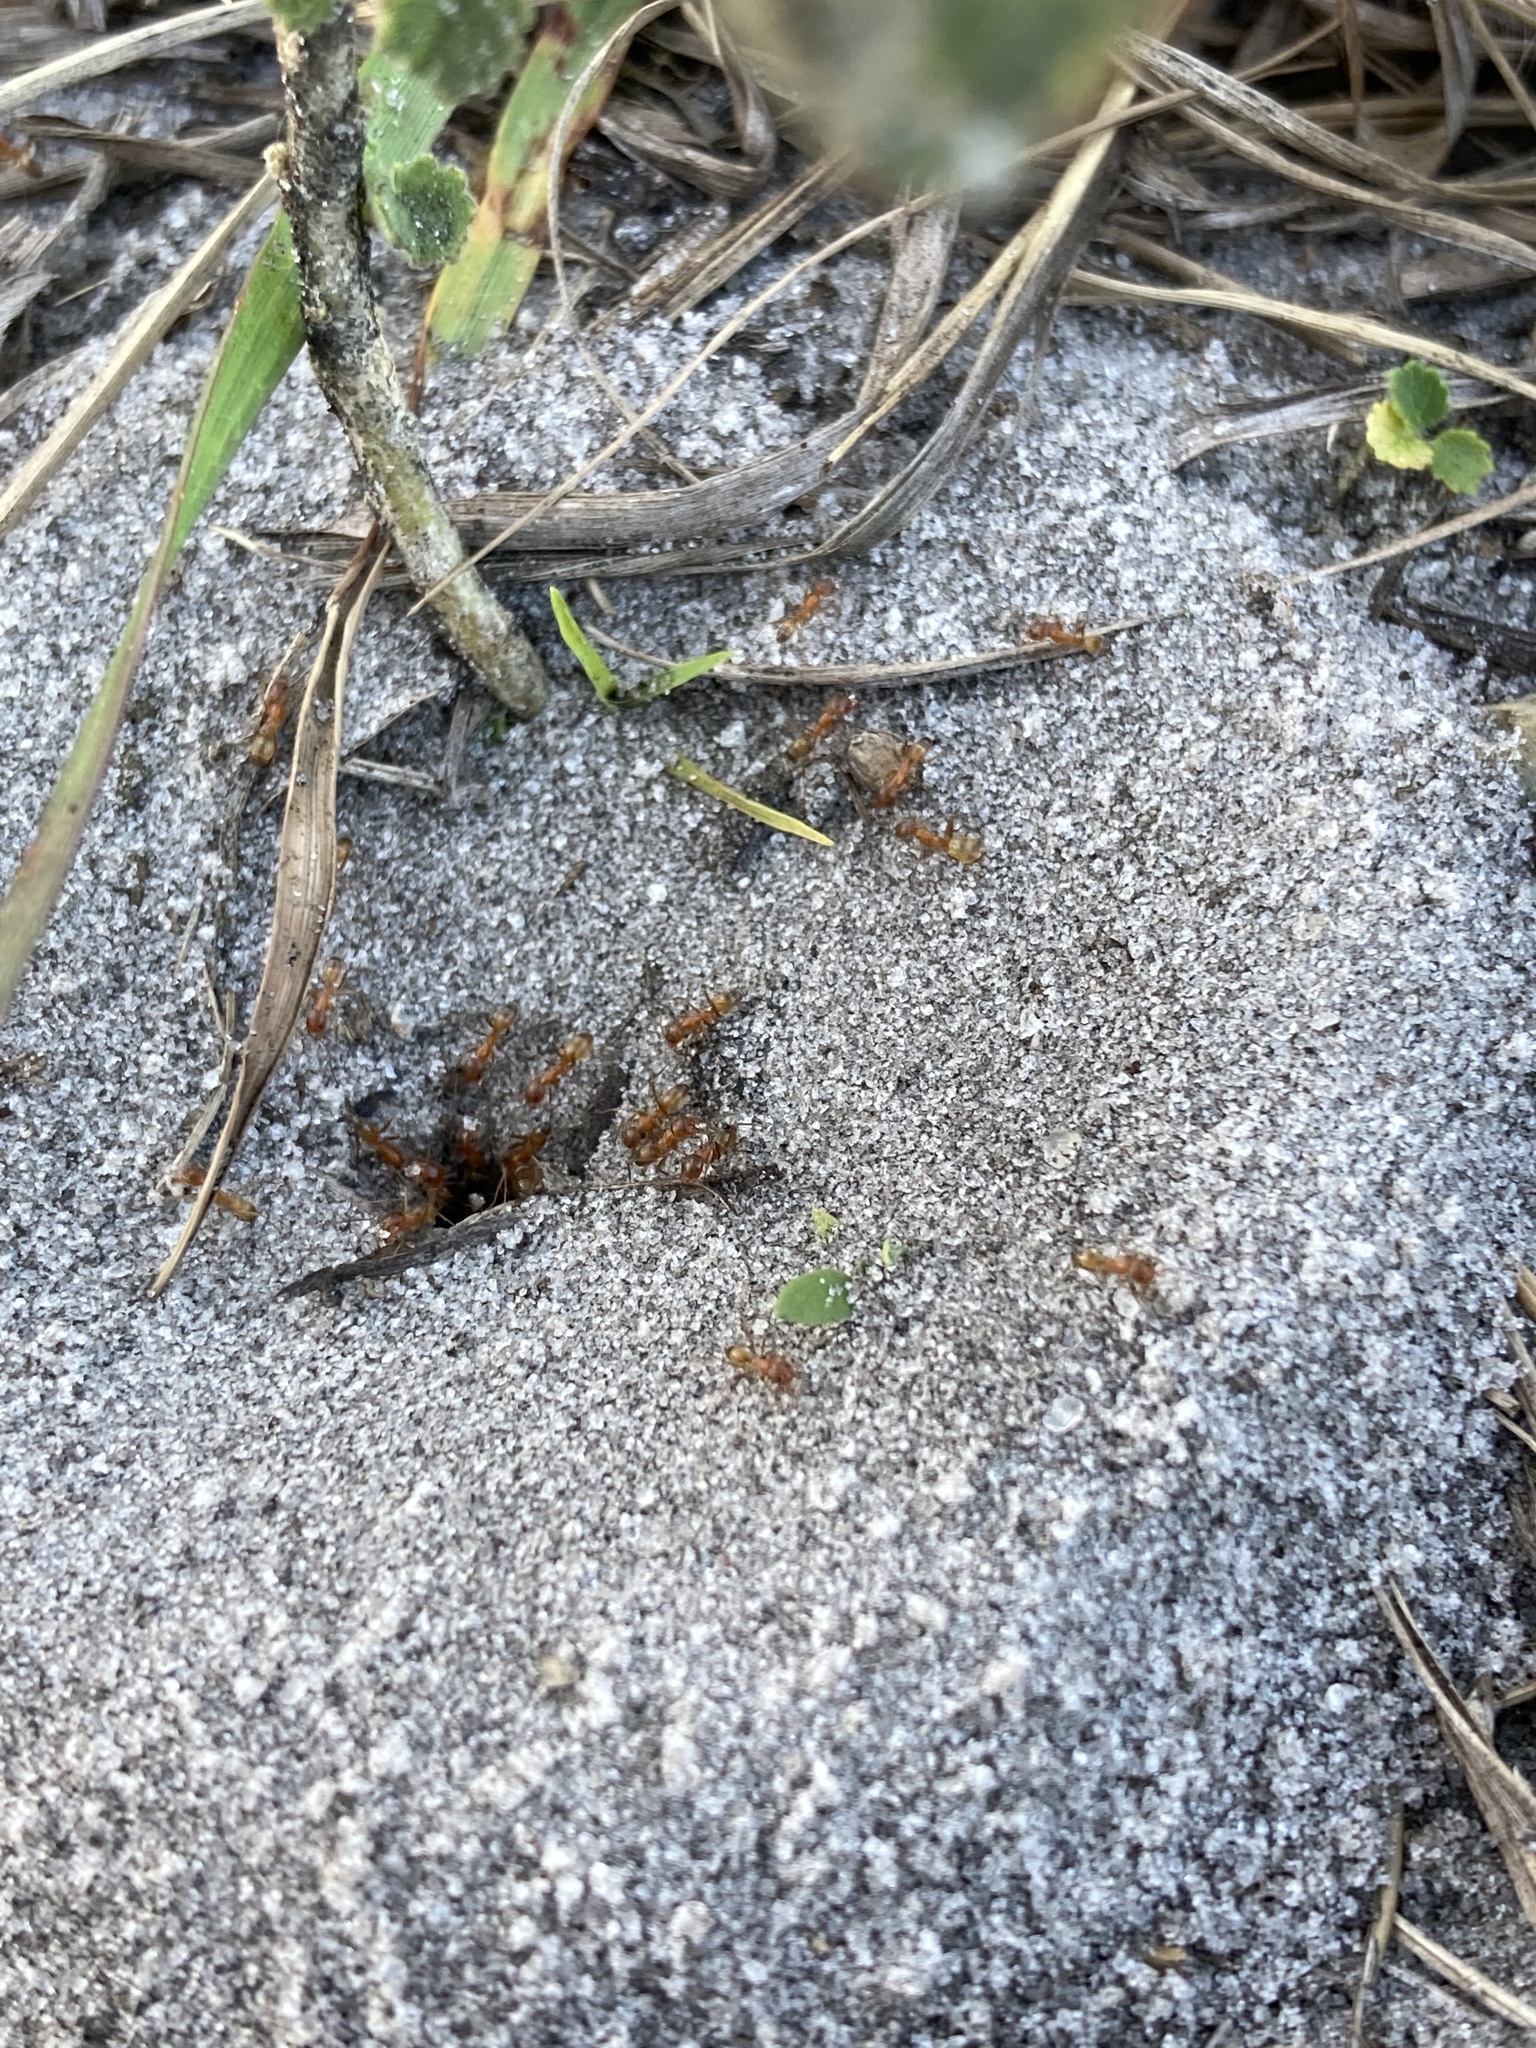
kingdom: Animalia
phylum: Arthropoda
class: Insecta
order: Hymenoptera
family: Formicidae
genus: Dorymyrmex
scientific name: Dorymyrmex bureni
